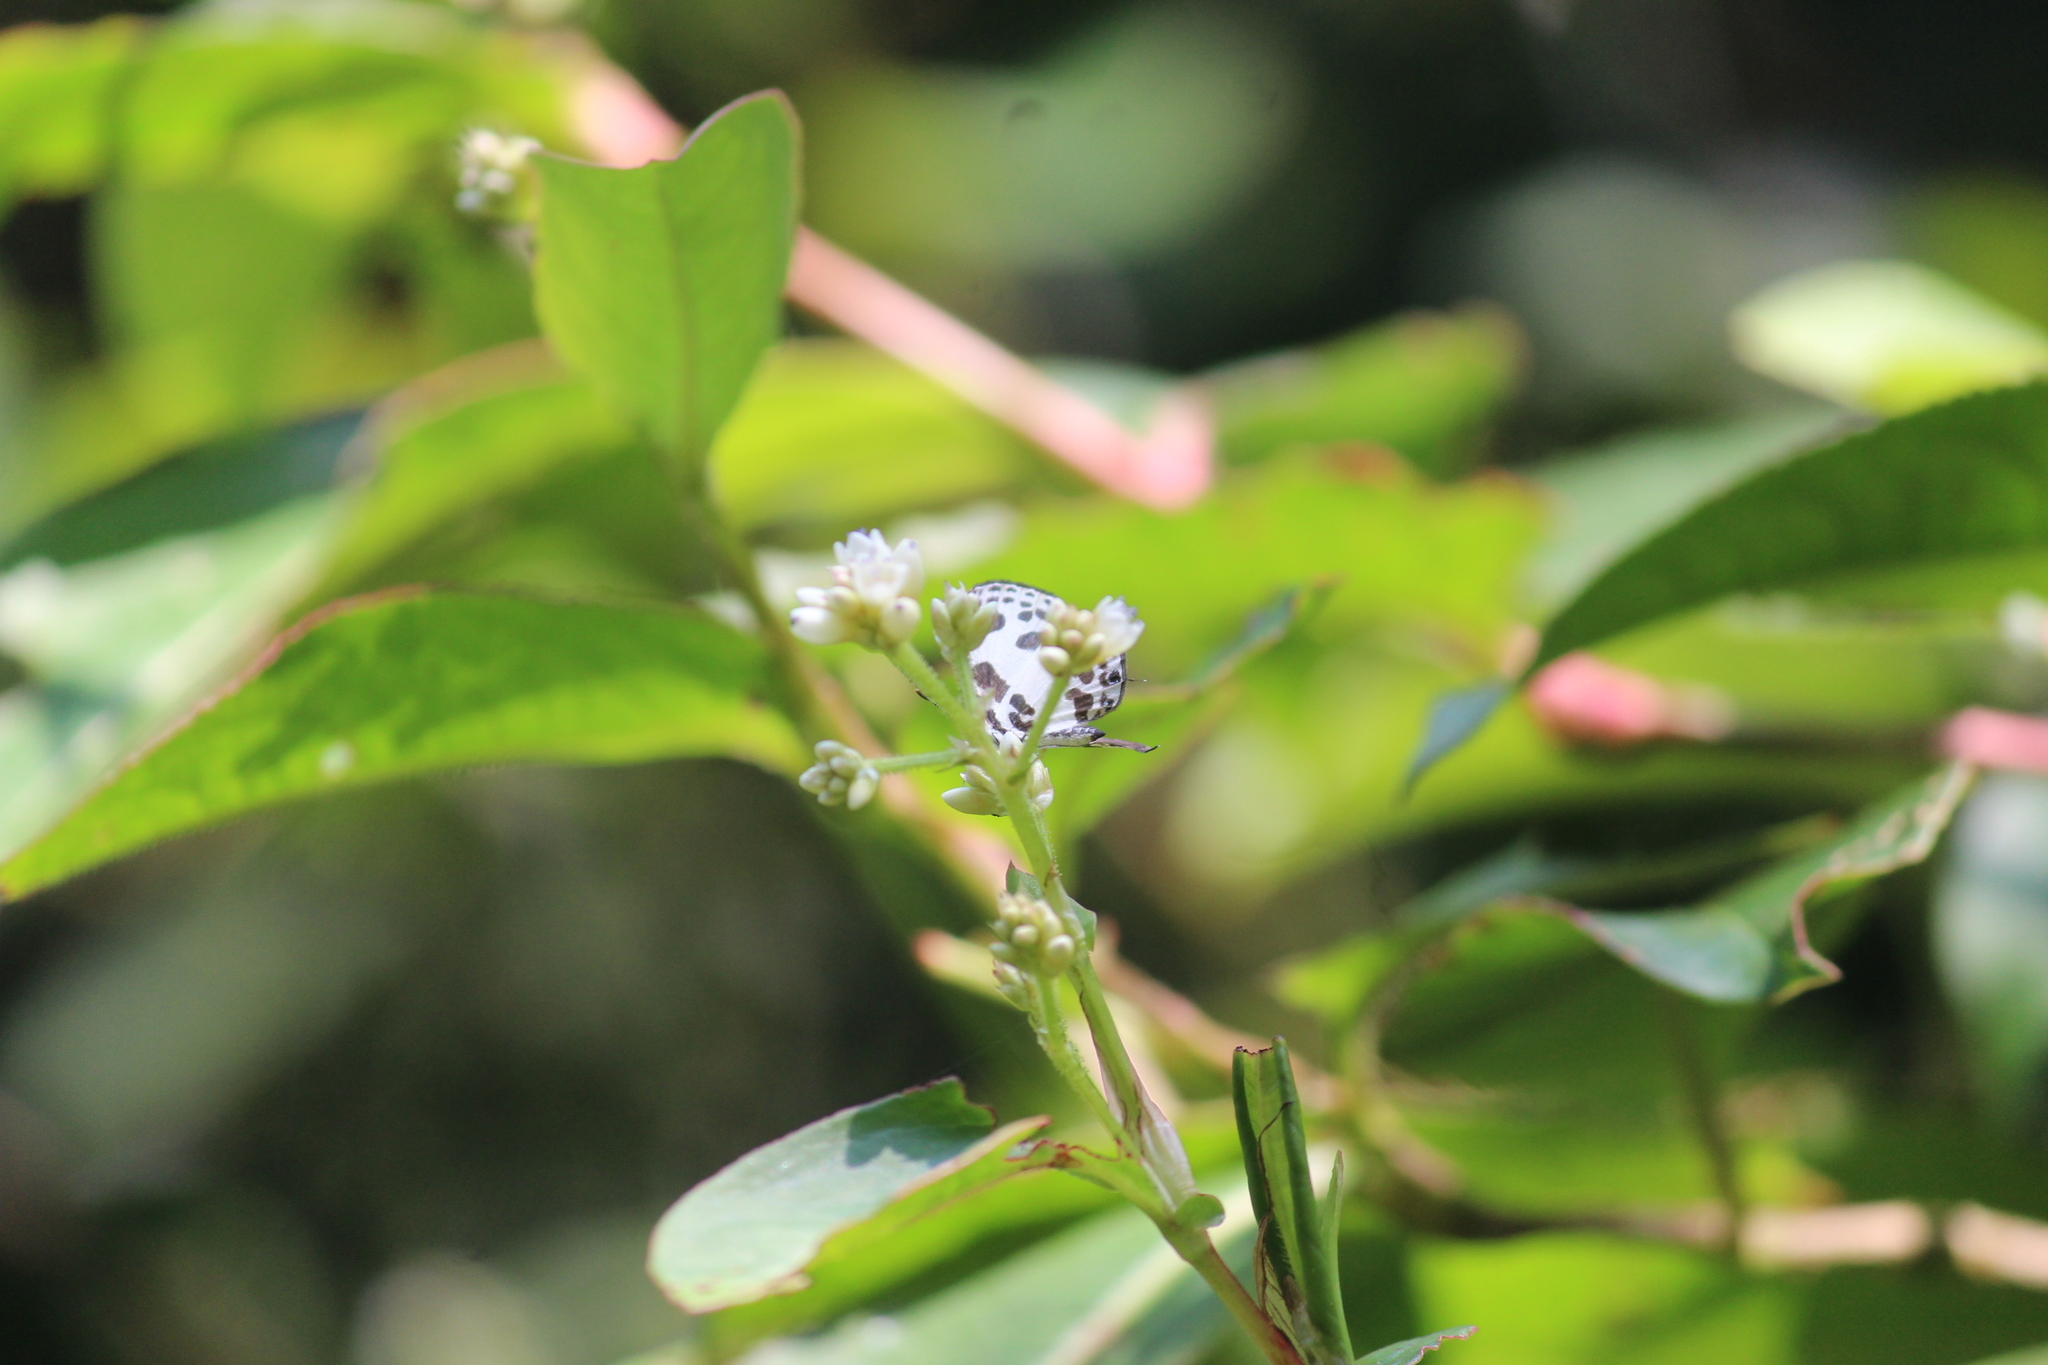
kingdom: Animalia
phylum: Arthropoda
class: Insecta
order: Lepidoptera
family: Lycaenidae
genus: Discolampa
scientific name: Discolampa ethion
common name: Banded blue pierrot
